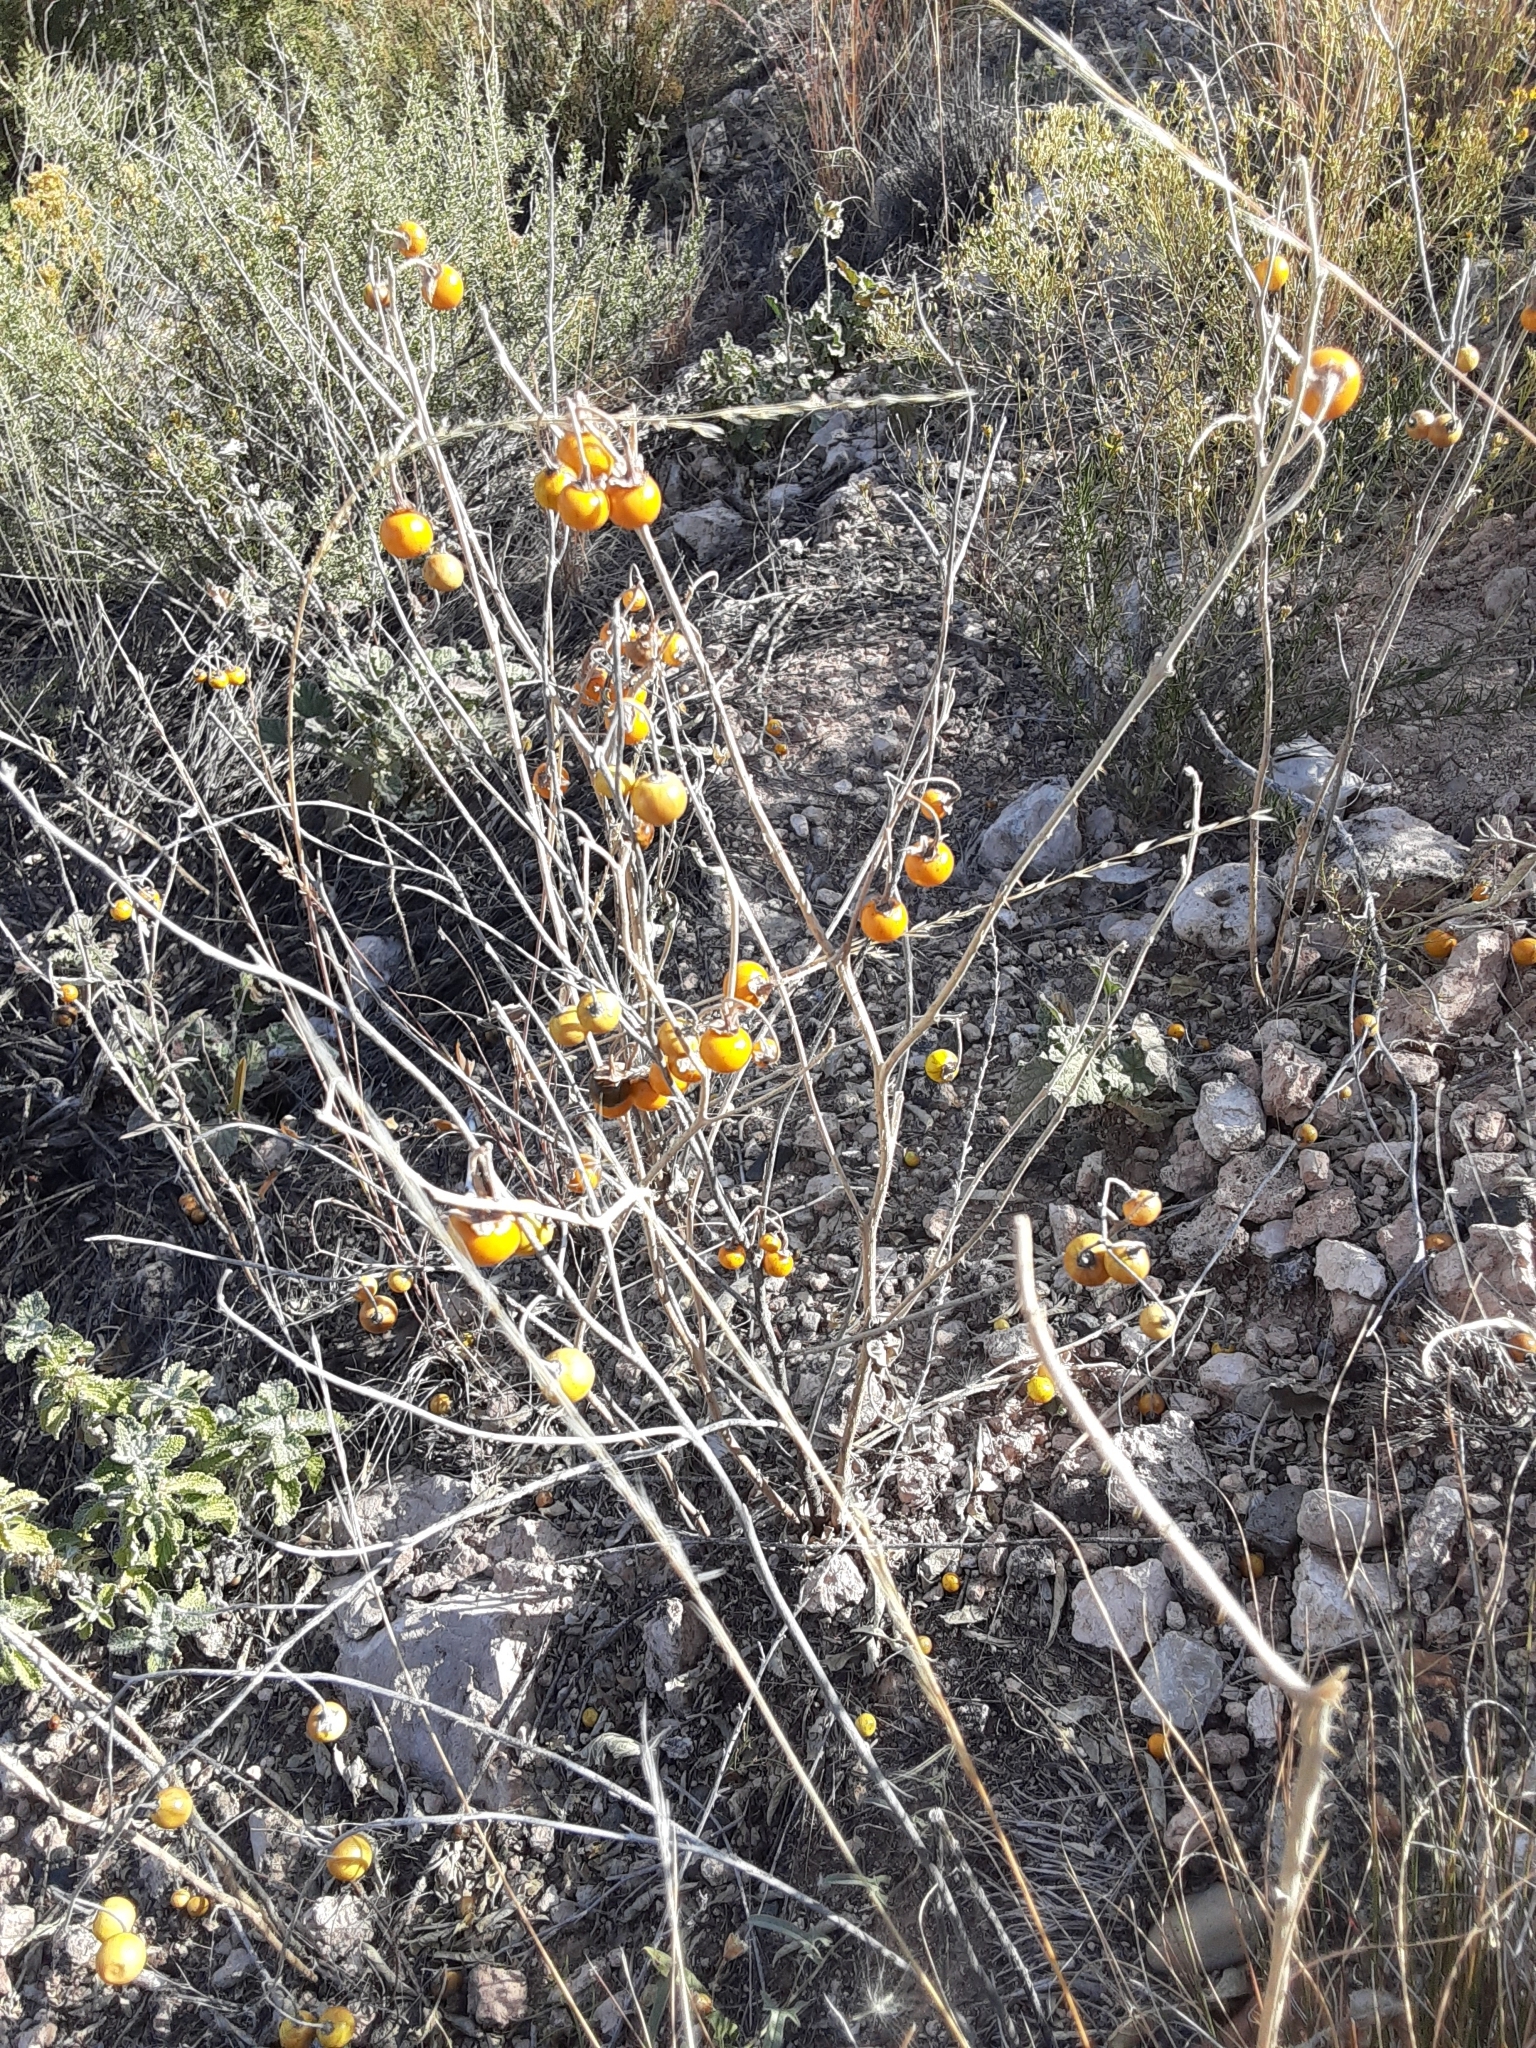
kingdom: Plantae
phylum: Tracheophyta
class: Magnoliopsida
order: Solanales
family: Solanaceae
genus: Solanum
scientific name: Solanum elaeagnifolium
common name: Silverleaf nightshade
